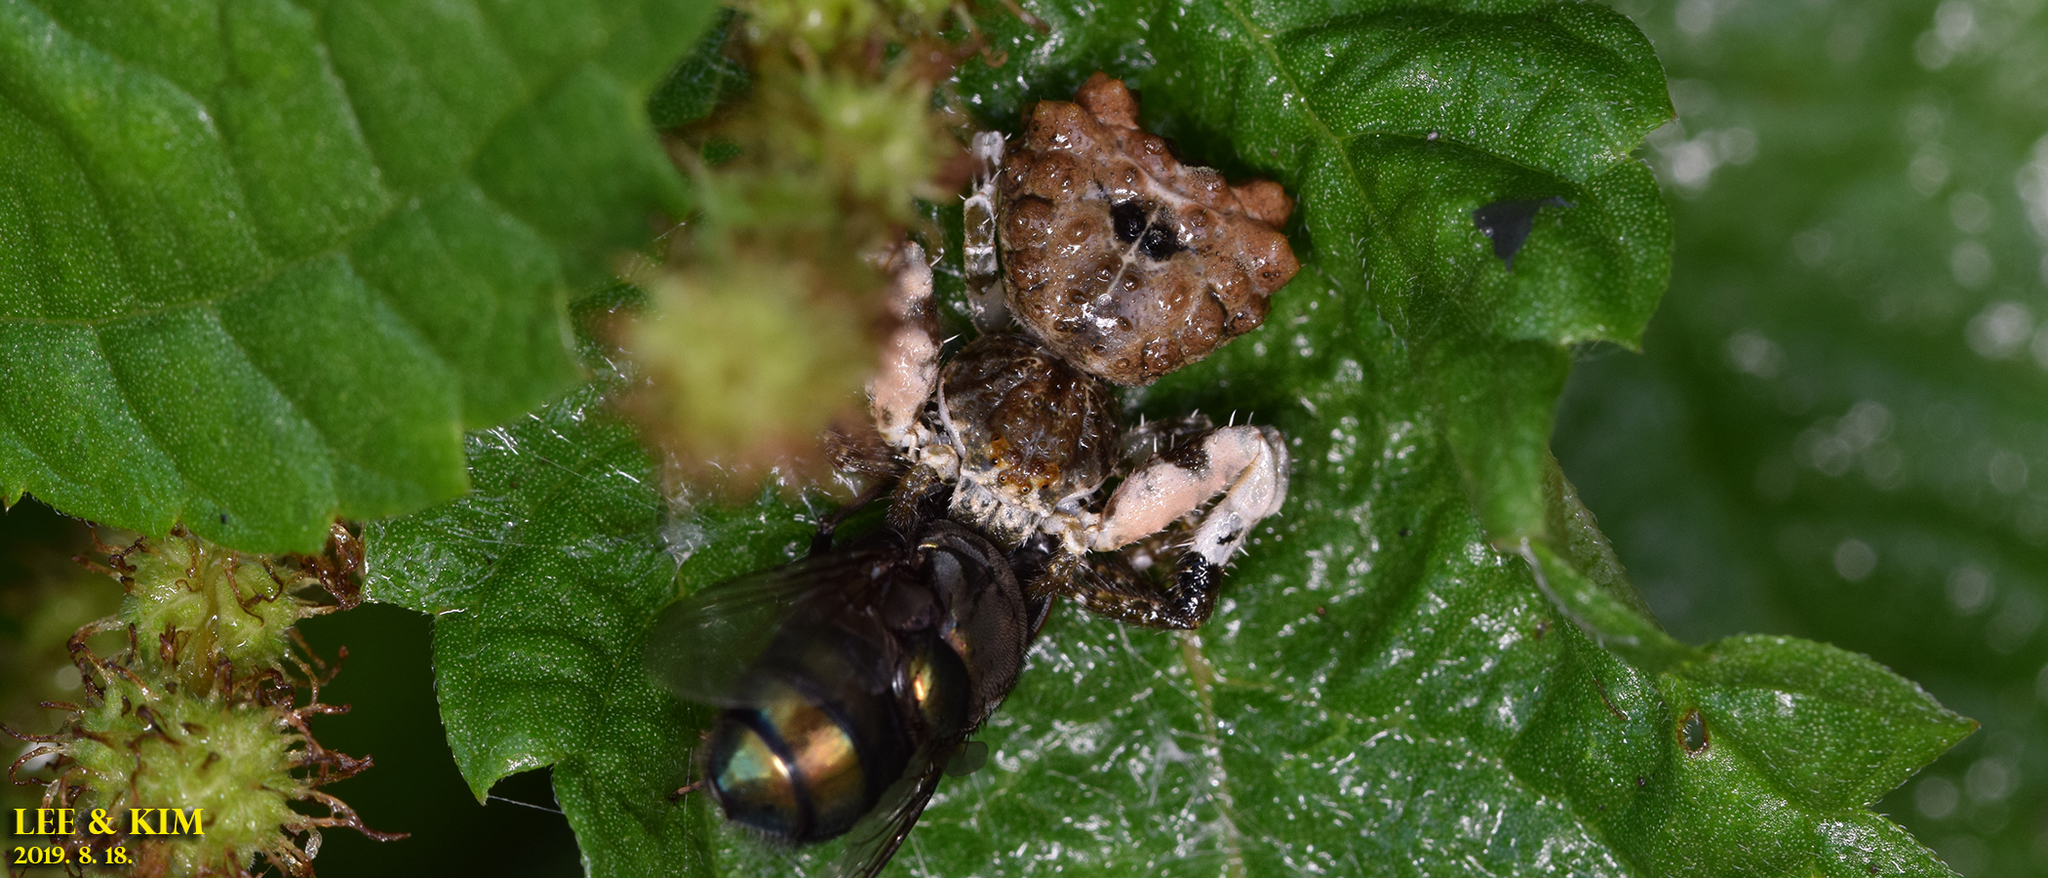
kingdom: Animalia
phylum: Arthropoda
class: Arachnida
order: Araneae
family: Thomisidae
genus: Phrynarachne
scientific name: Phrynarachne katoi
